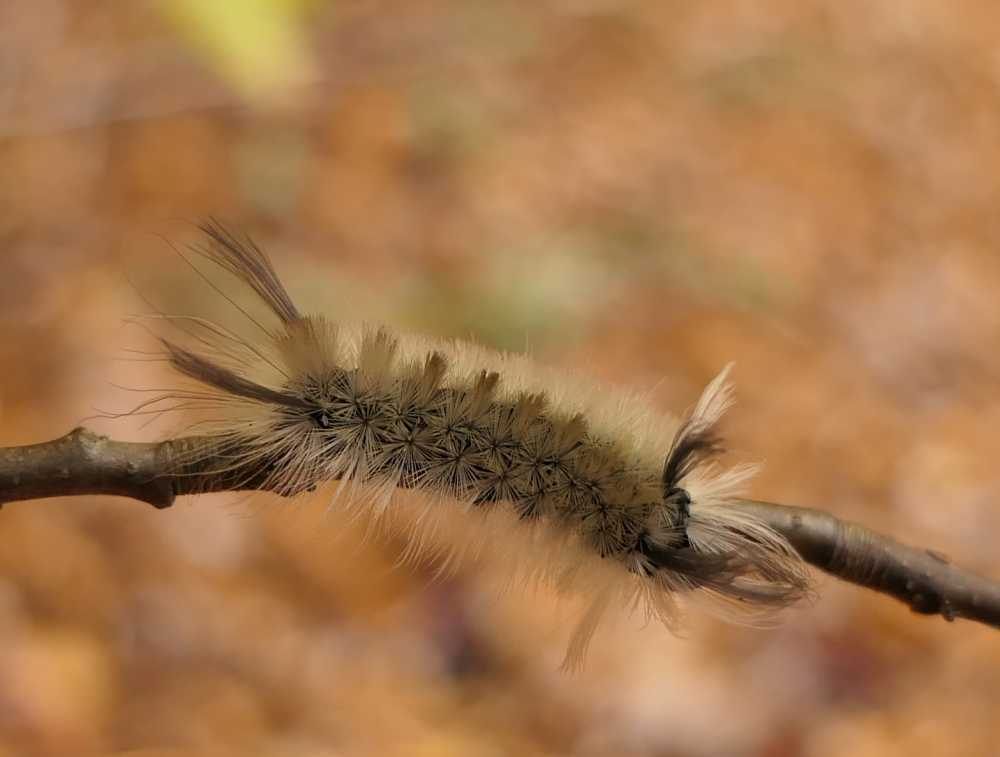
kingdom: Animalia
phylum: Arthropoda
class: Insecta
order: Lepidoptera
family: Erebidae
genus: Halysidota
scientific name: Halysidota tessellaris
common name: Banded tussock moth
